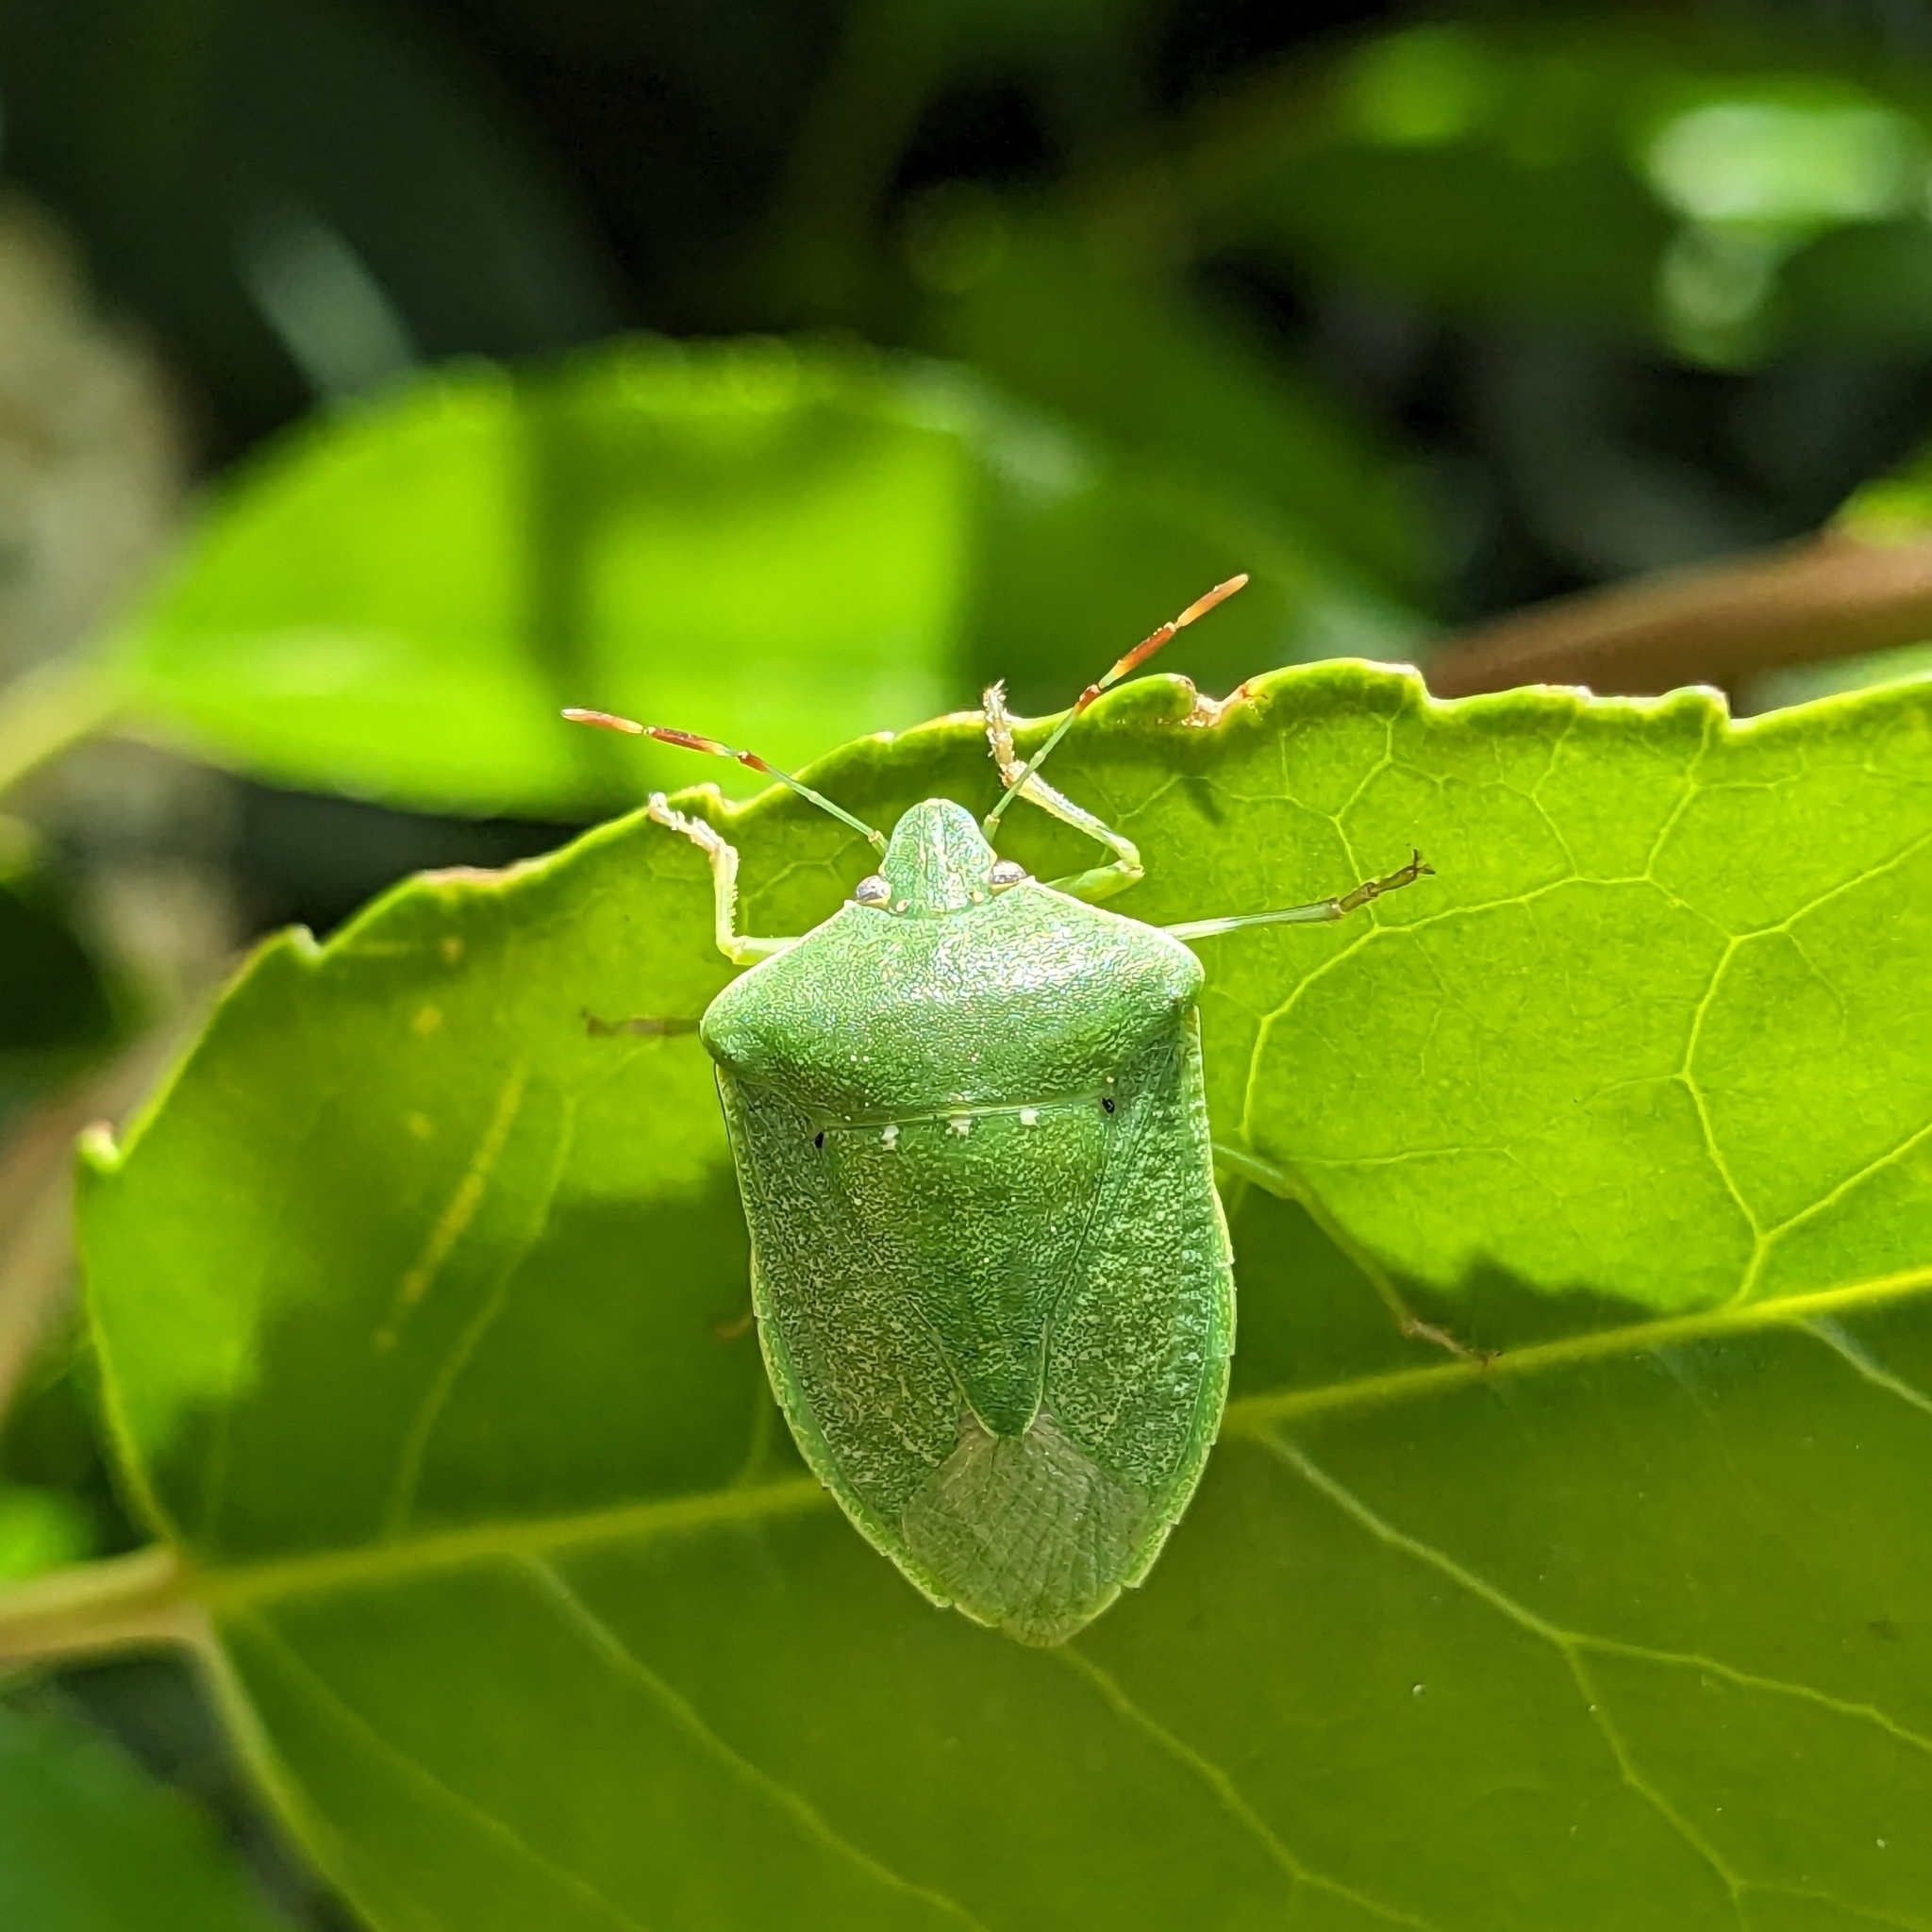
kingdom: Animalia
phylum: Arthropoda
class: Insecta
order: Hemiptera
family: Pentatomidae
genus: Nezara
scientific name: Nezara viridula
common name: Southern green stink bug
